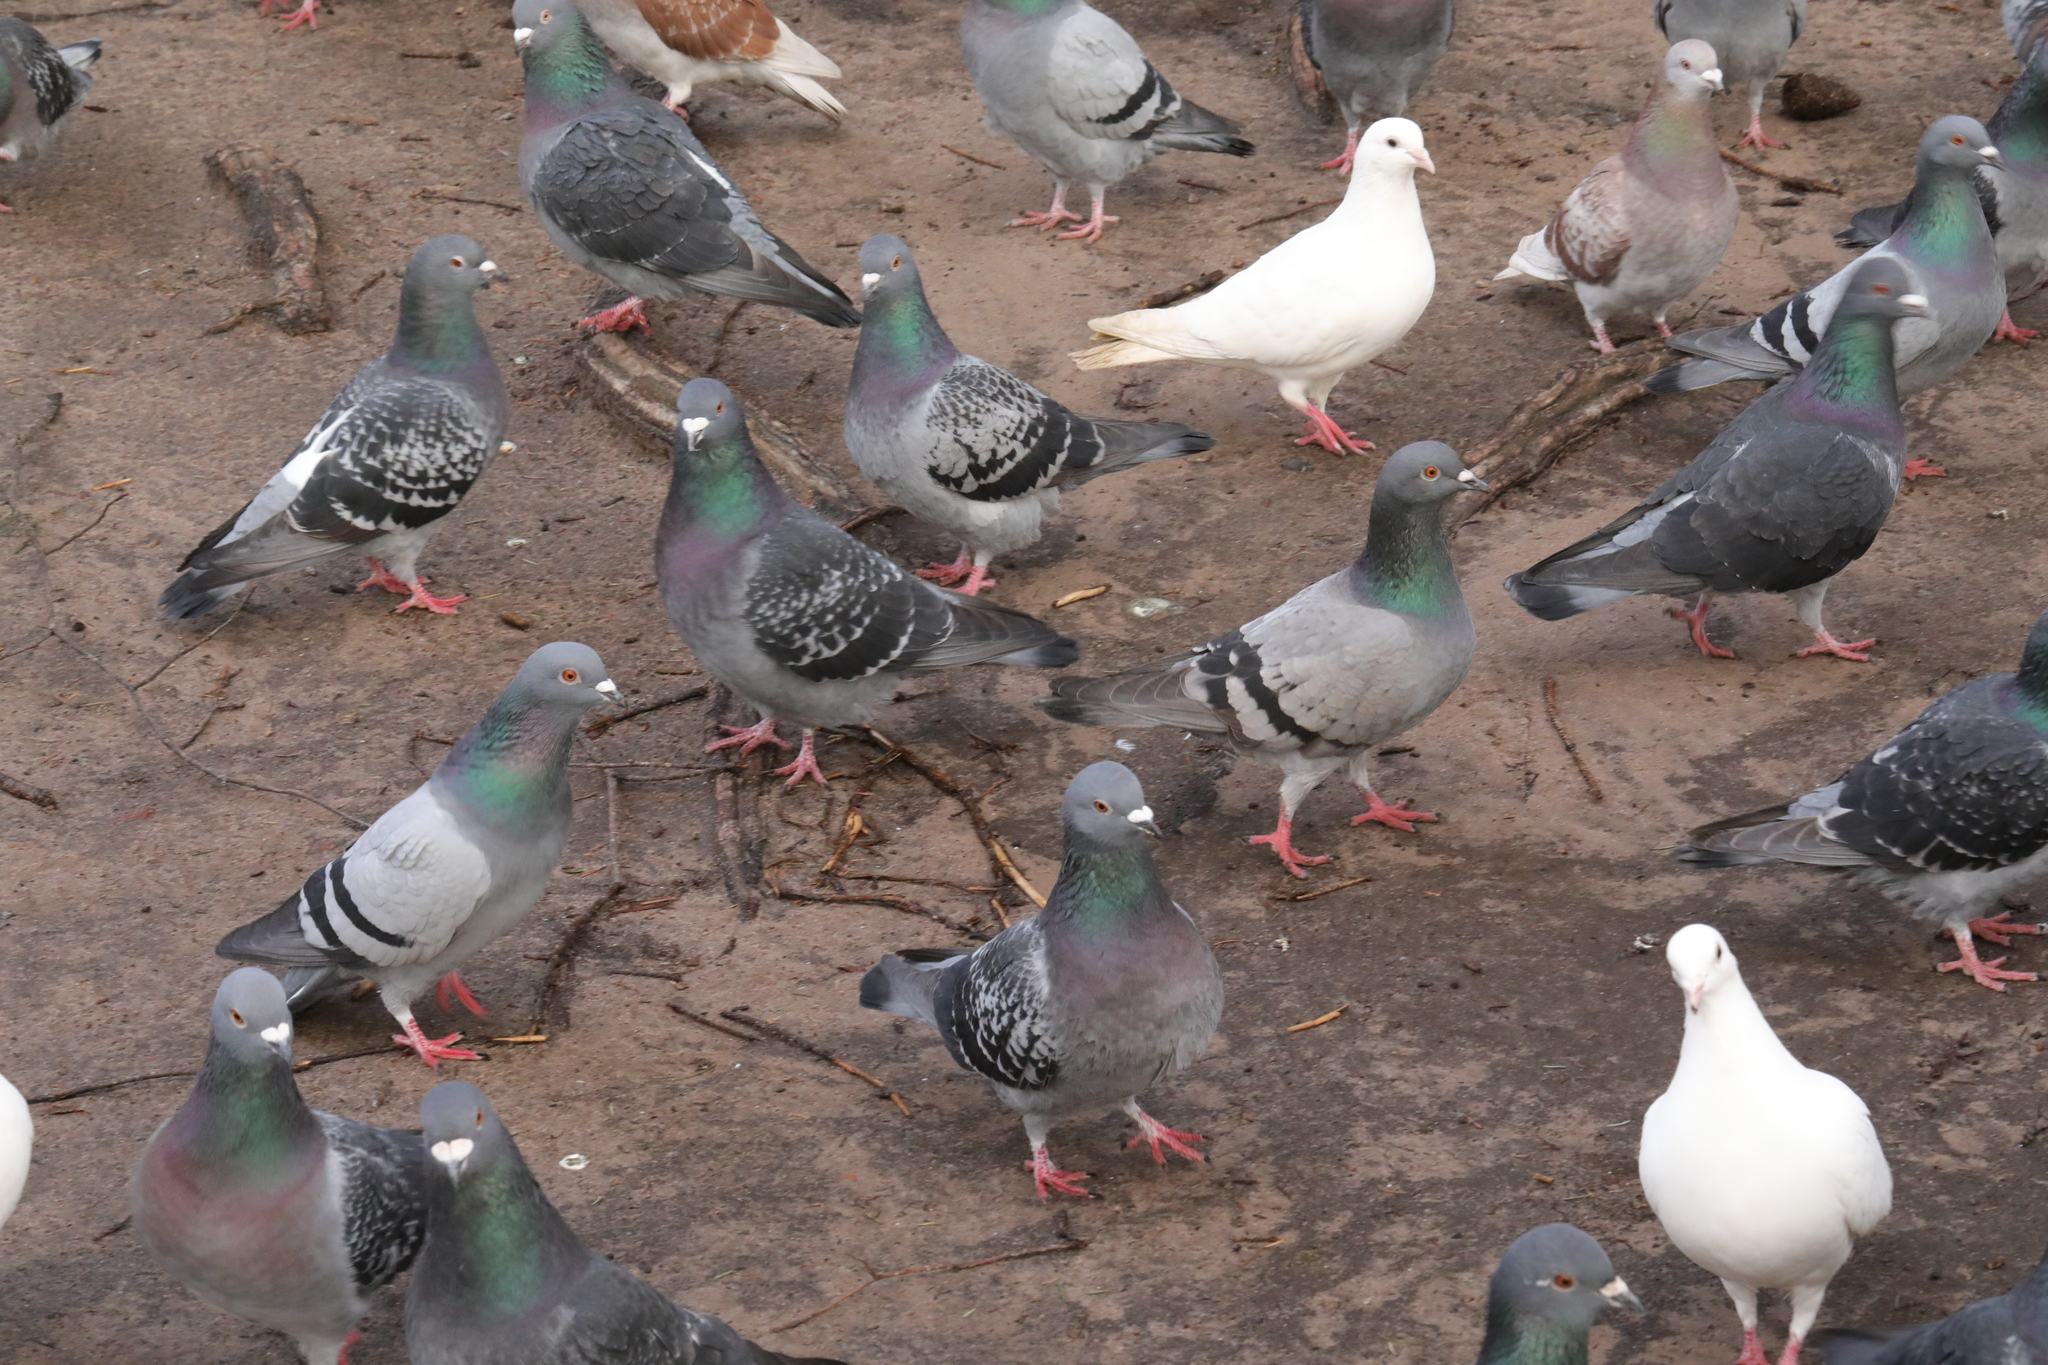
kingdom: Animalia
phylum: Chordata
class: Aves
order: Columbiformes
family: Columbidae
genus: Columba
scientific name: Columba livia
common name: Rock pigeon
